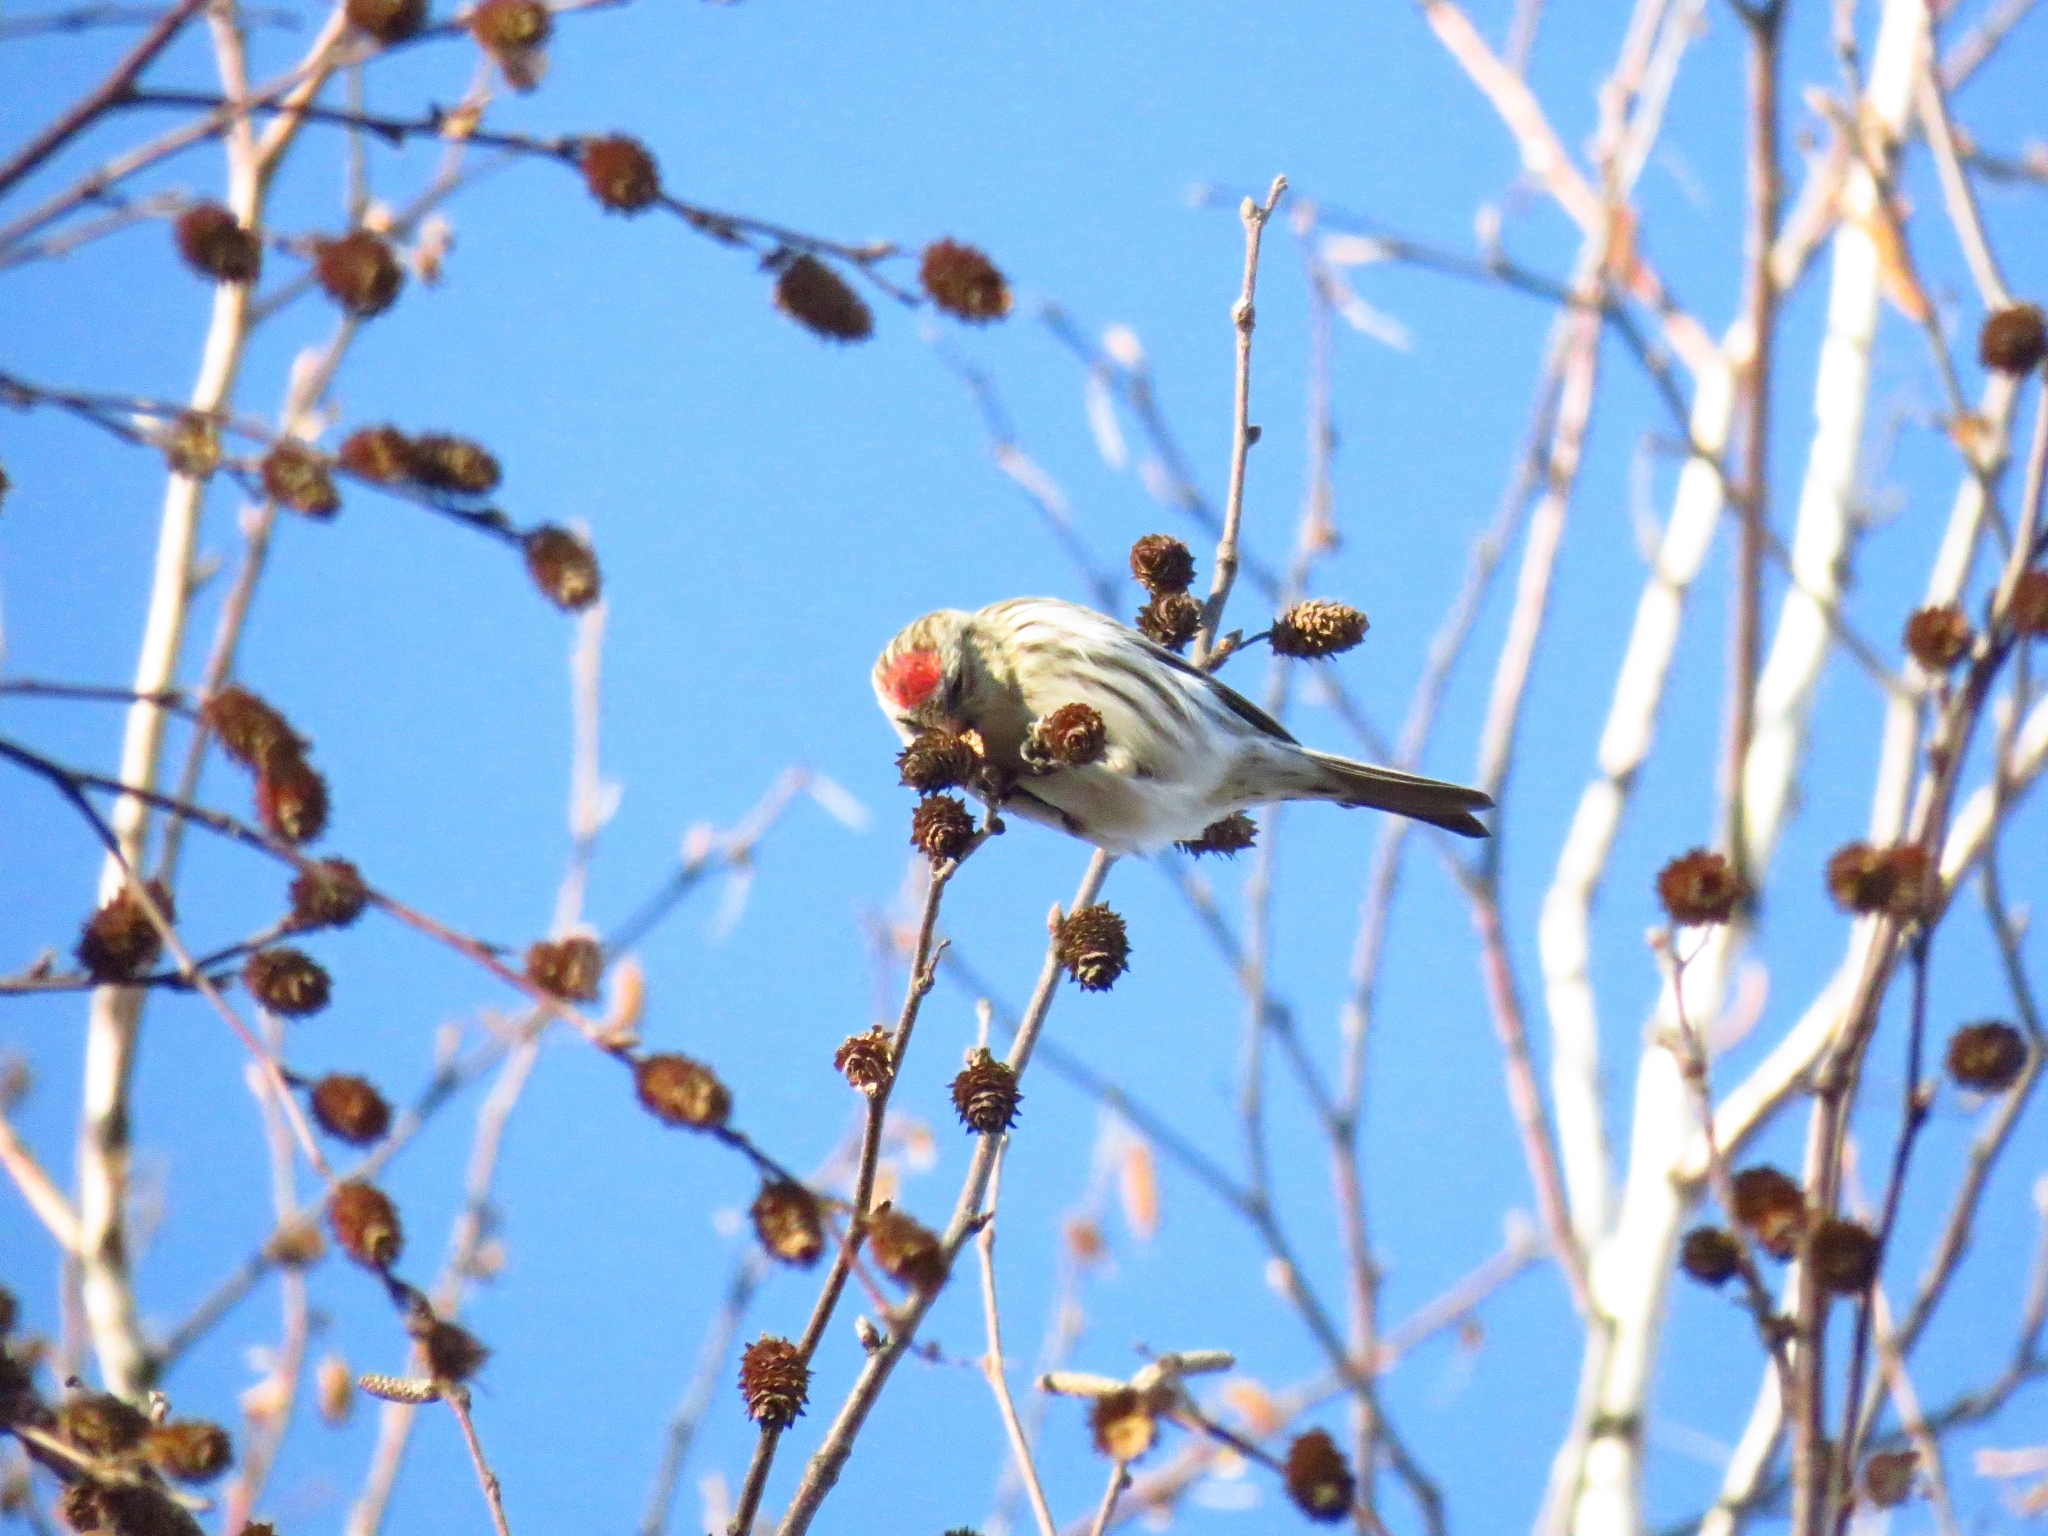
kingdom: Animalia
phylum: Chordata
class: Aves
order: Passeriformes
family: Fringillidae
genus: Acanthis
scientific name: Acanthis flammea
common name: Common redpoll
